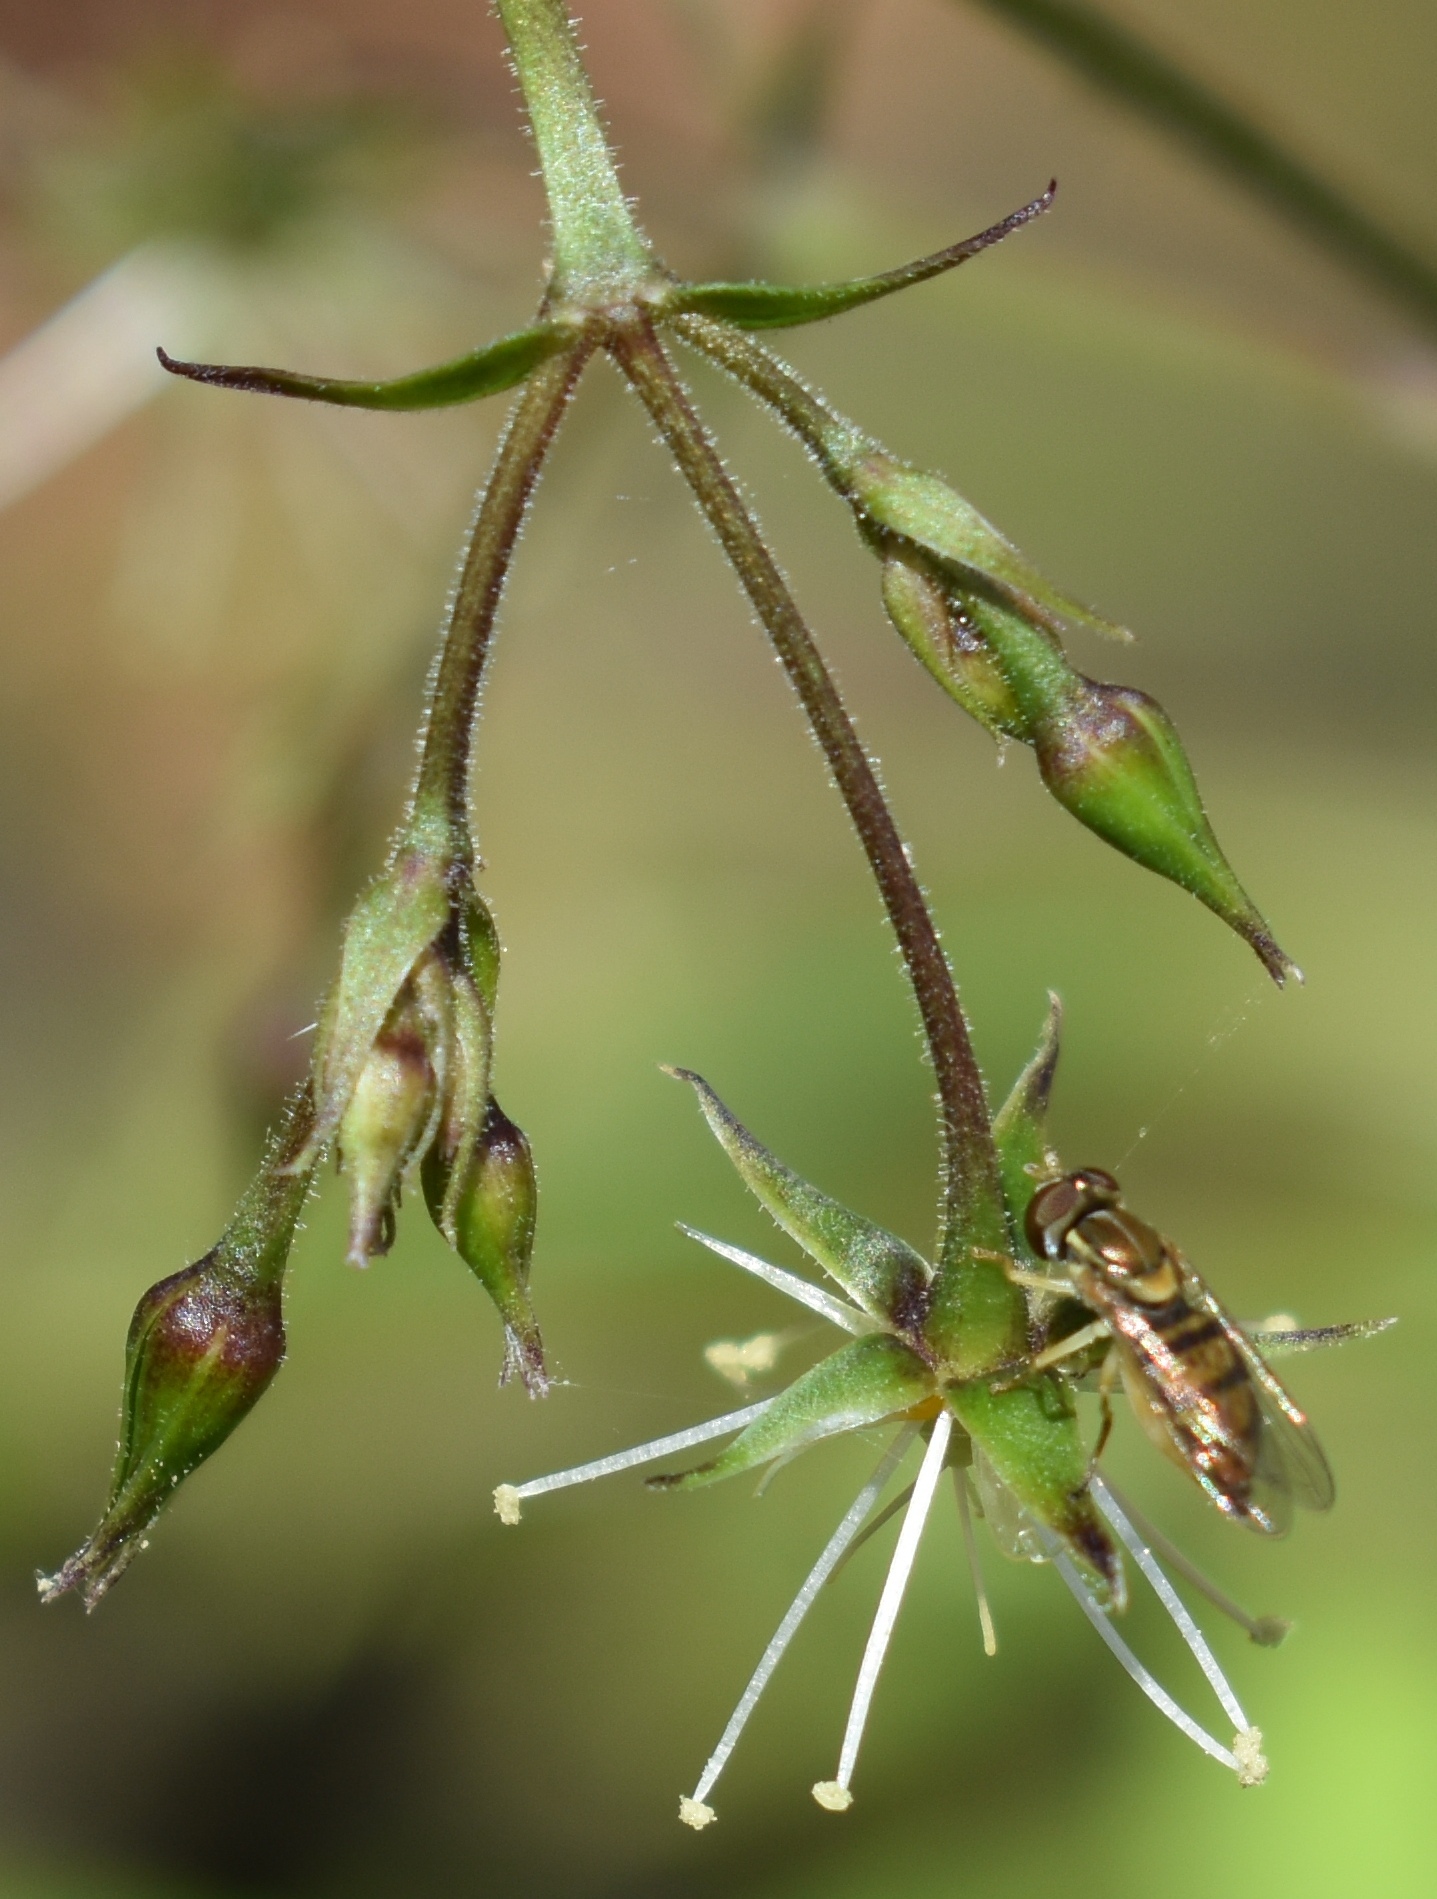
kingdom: Animalia
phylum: Arthropoda
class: Insecta
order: Diptera
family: Syrphidae
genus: Toxomerus
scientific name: Toxomerus marginatus
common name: Syrphid fly
